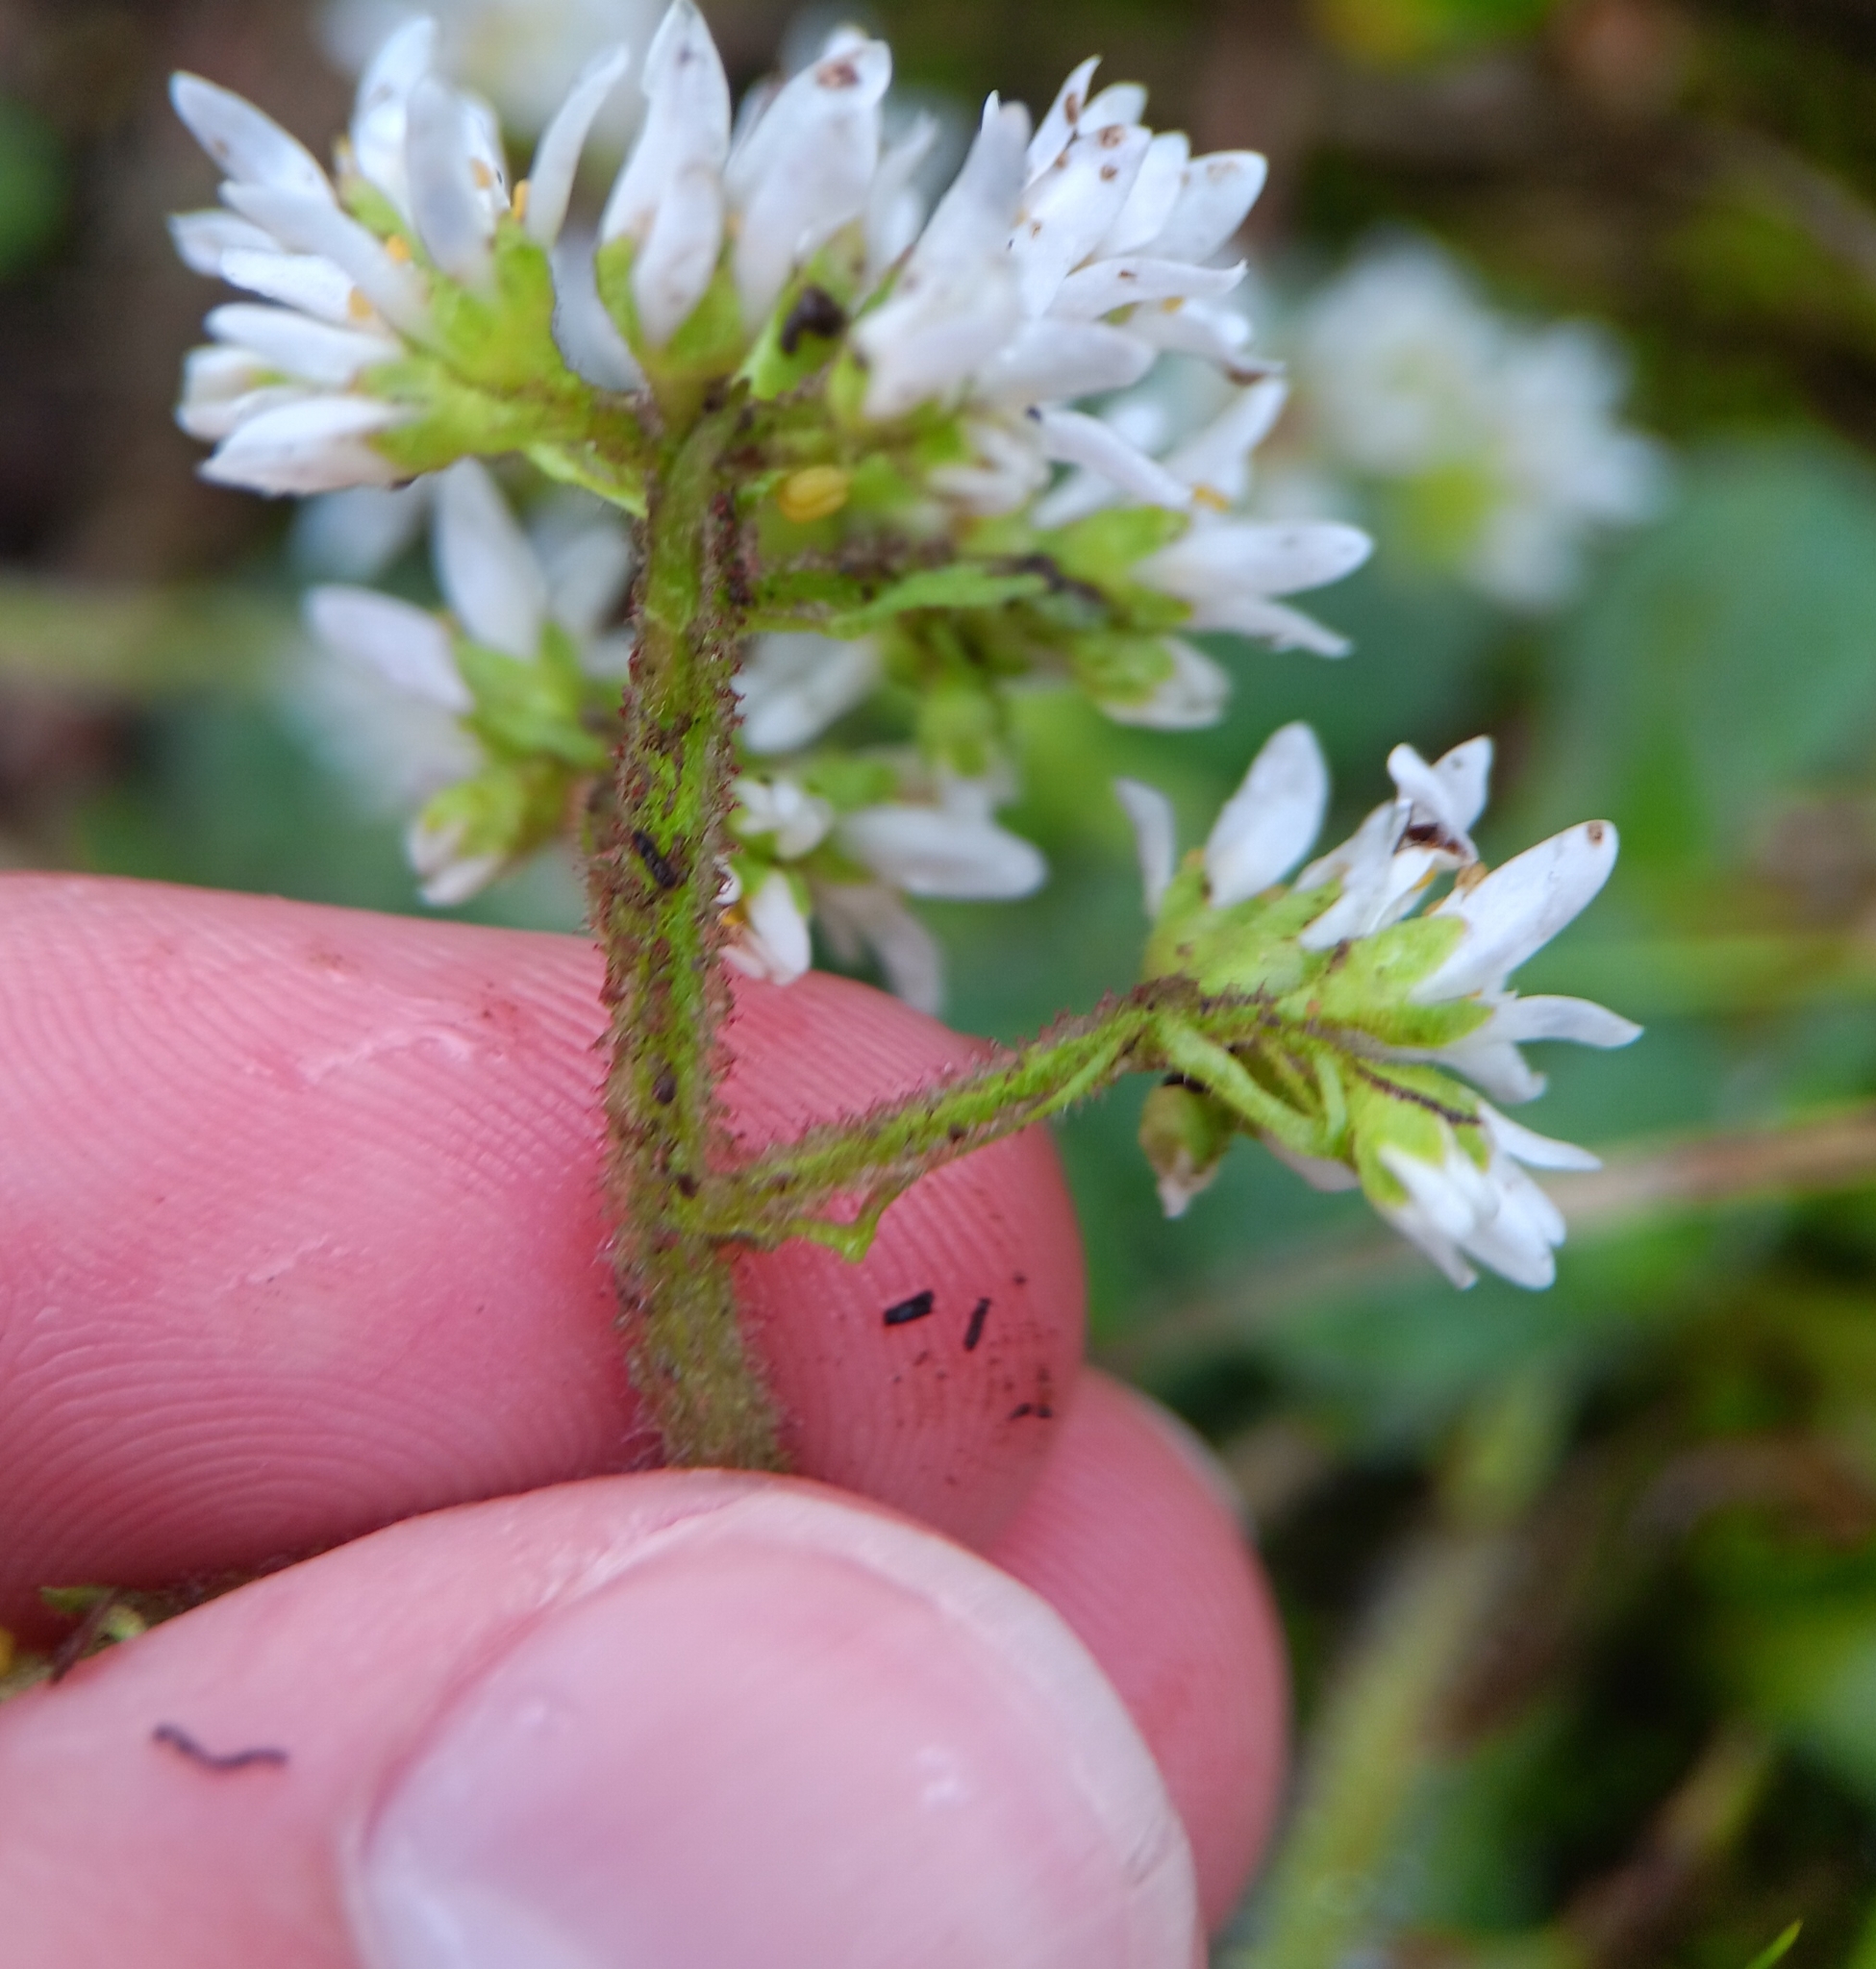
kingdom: Plantae
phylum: Tracheophyta
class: Magnoliopsida
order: Saxifragales
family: Saxifragaceae
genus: Micranthes
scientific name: Micranthes virginiensis
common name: Early saxifrage
